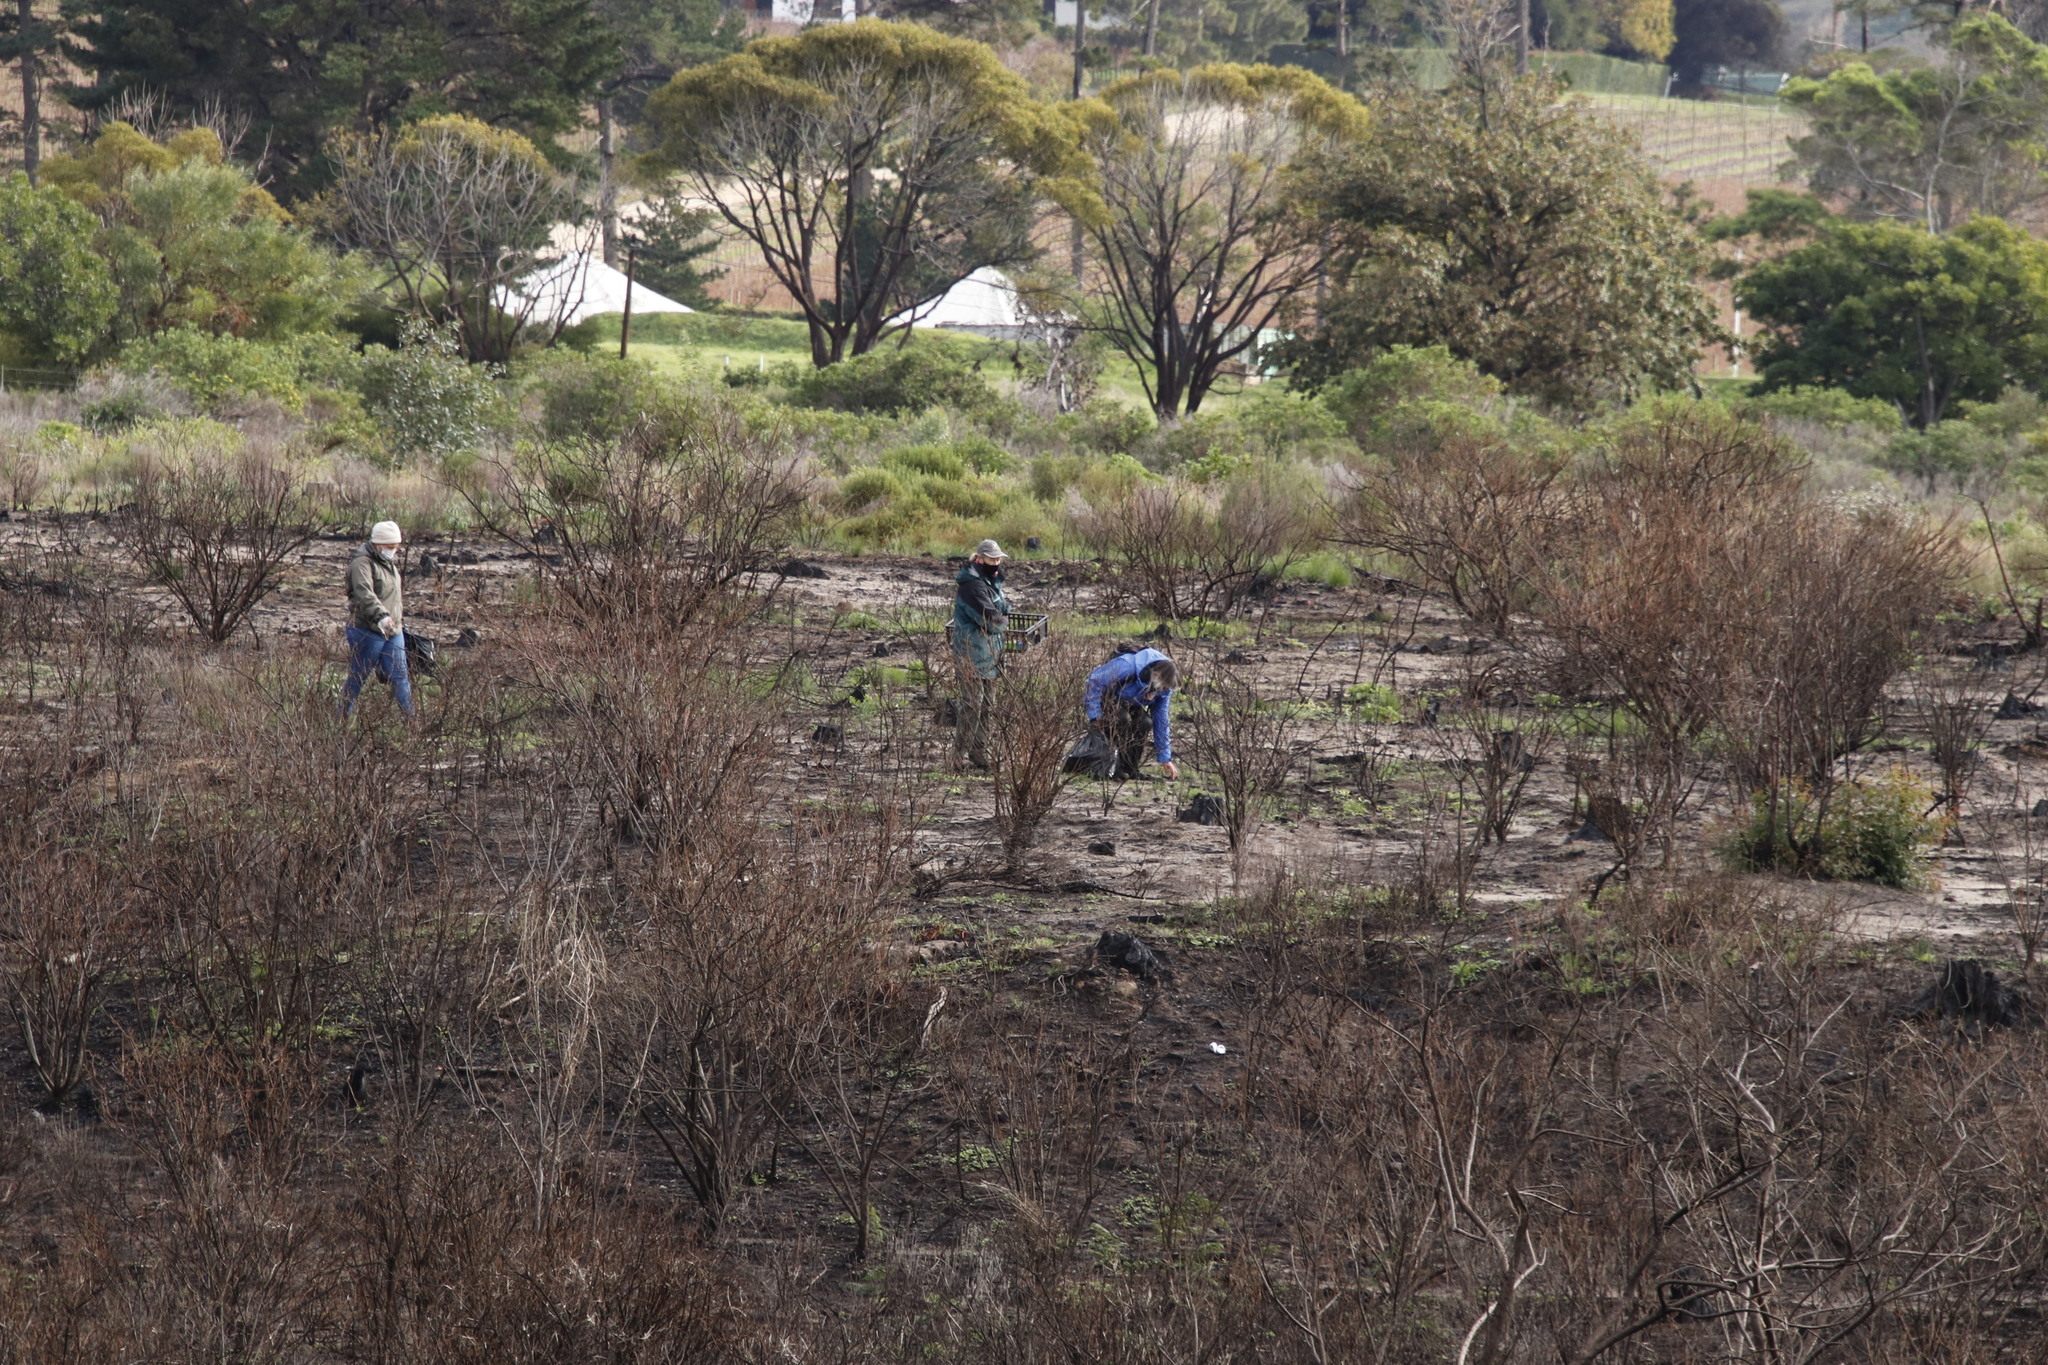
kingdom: Plantae
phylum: Tracheophyta
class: Magnoliopsida
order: Asterales
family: Asteraceae
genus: Osteospermum
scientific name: Osteospermum moniliferum
